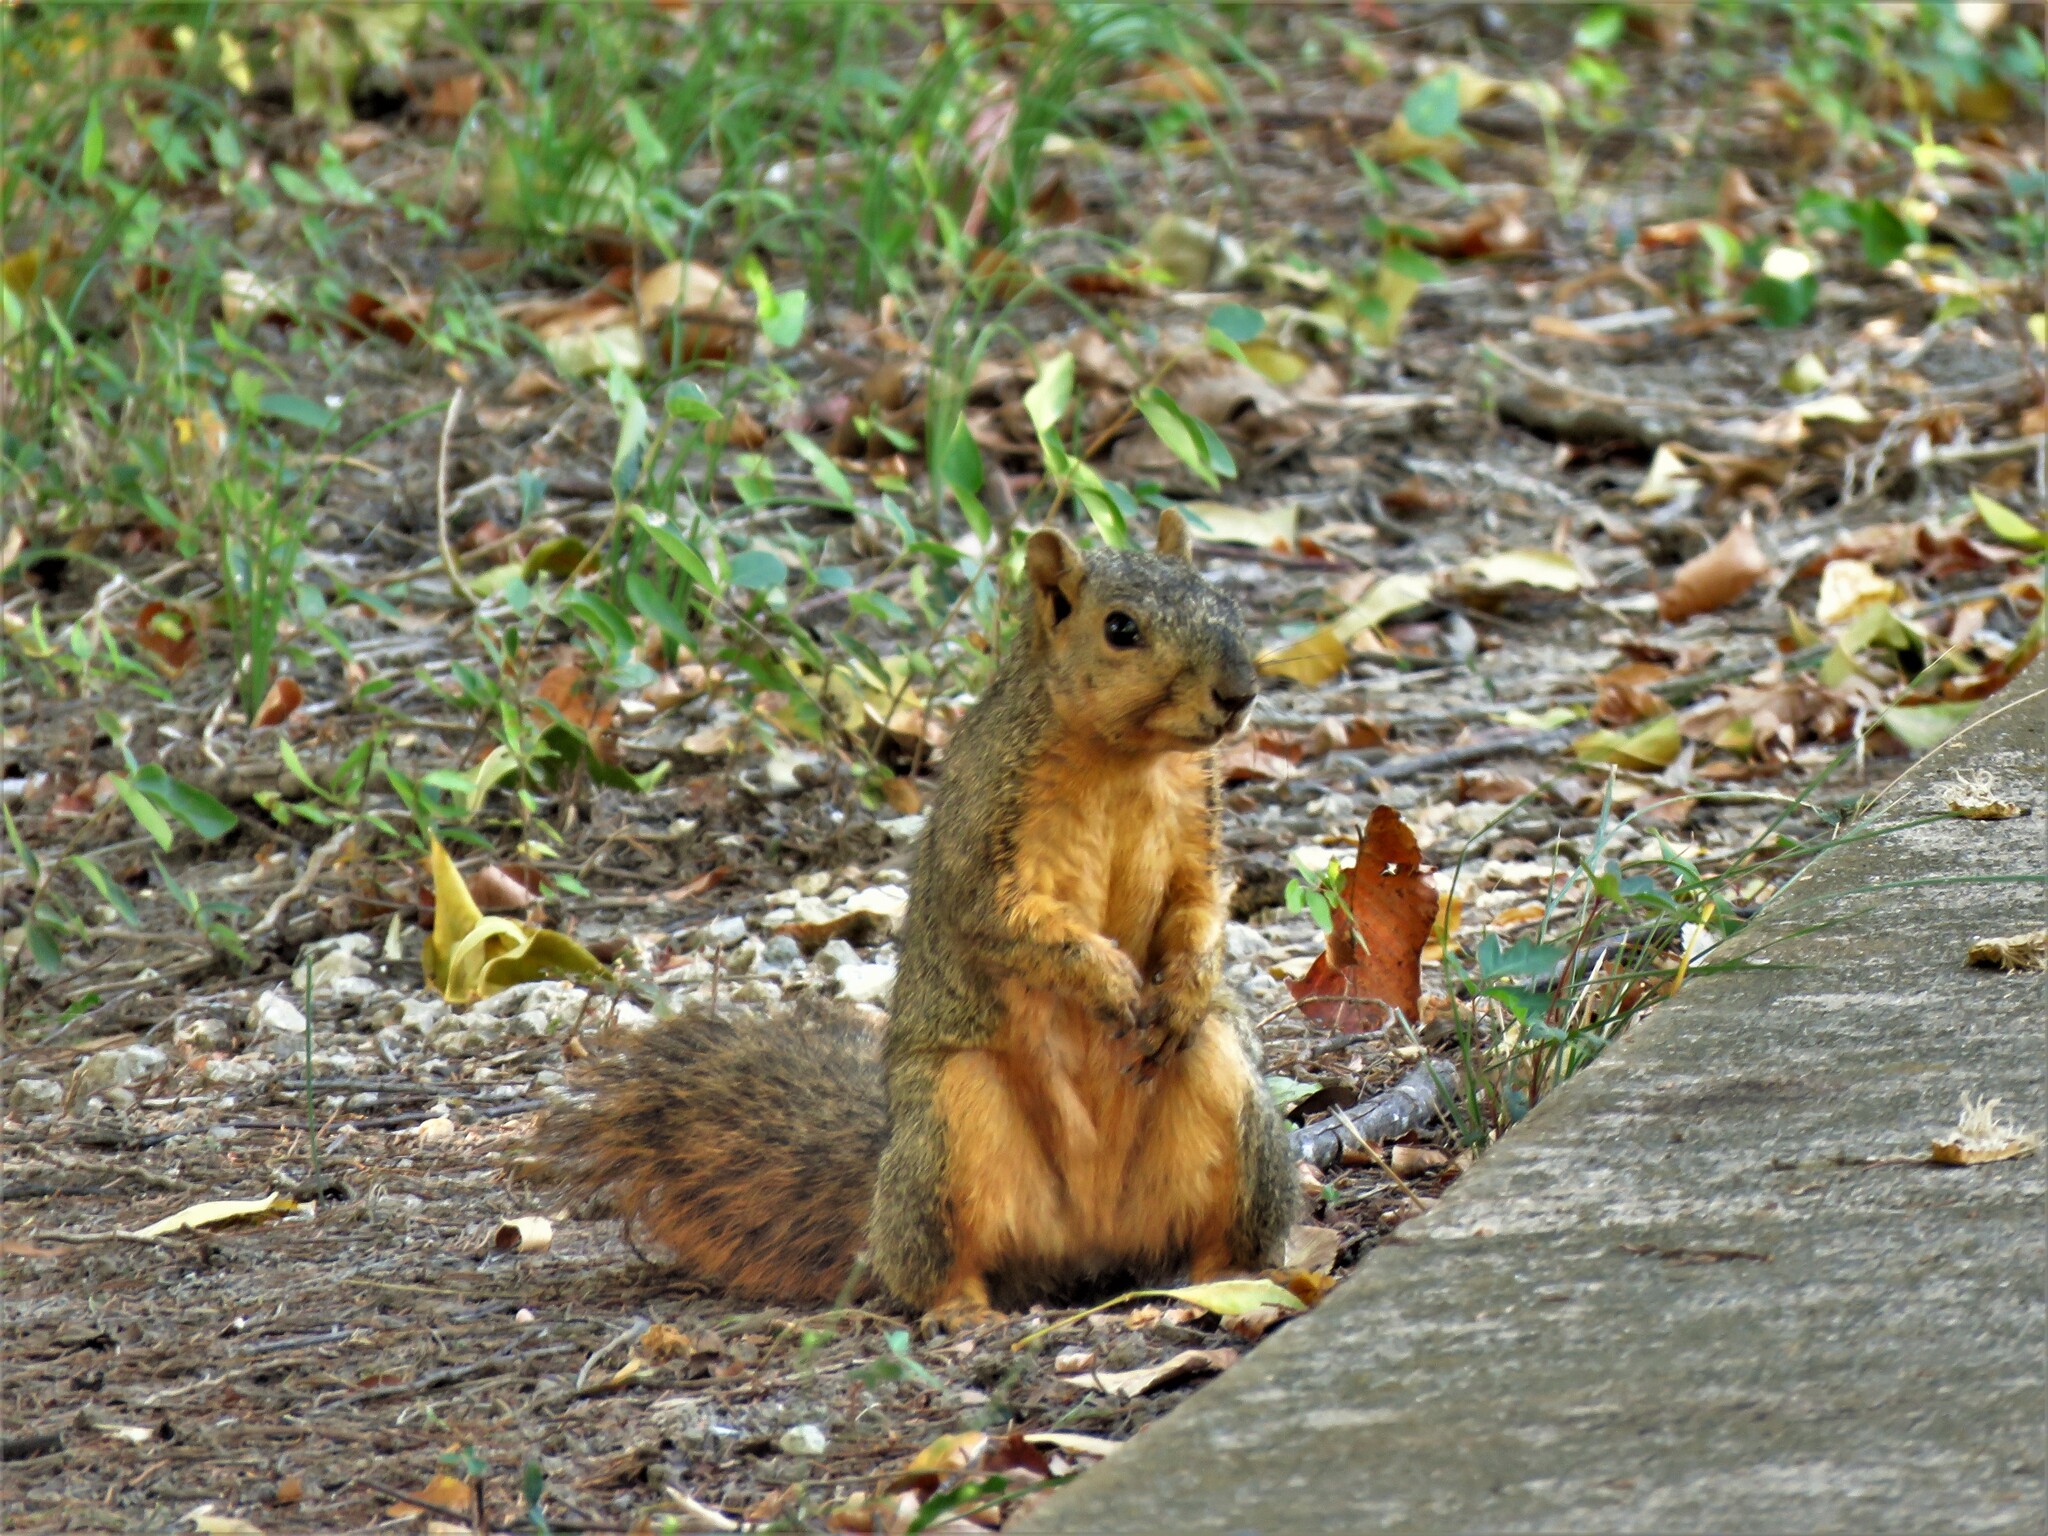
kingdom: Animalia
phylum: Chordata
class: Mammalia
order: Rodentia
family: Sciuridae
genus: Sciurus
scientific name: Sciurus niger
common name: Fox squirrel
